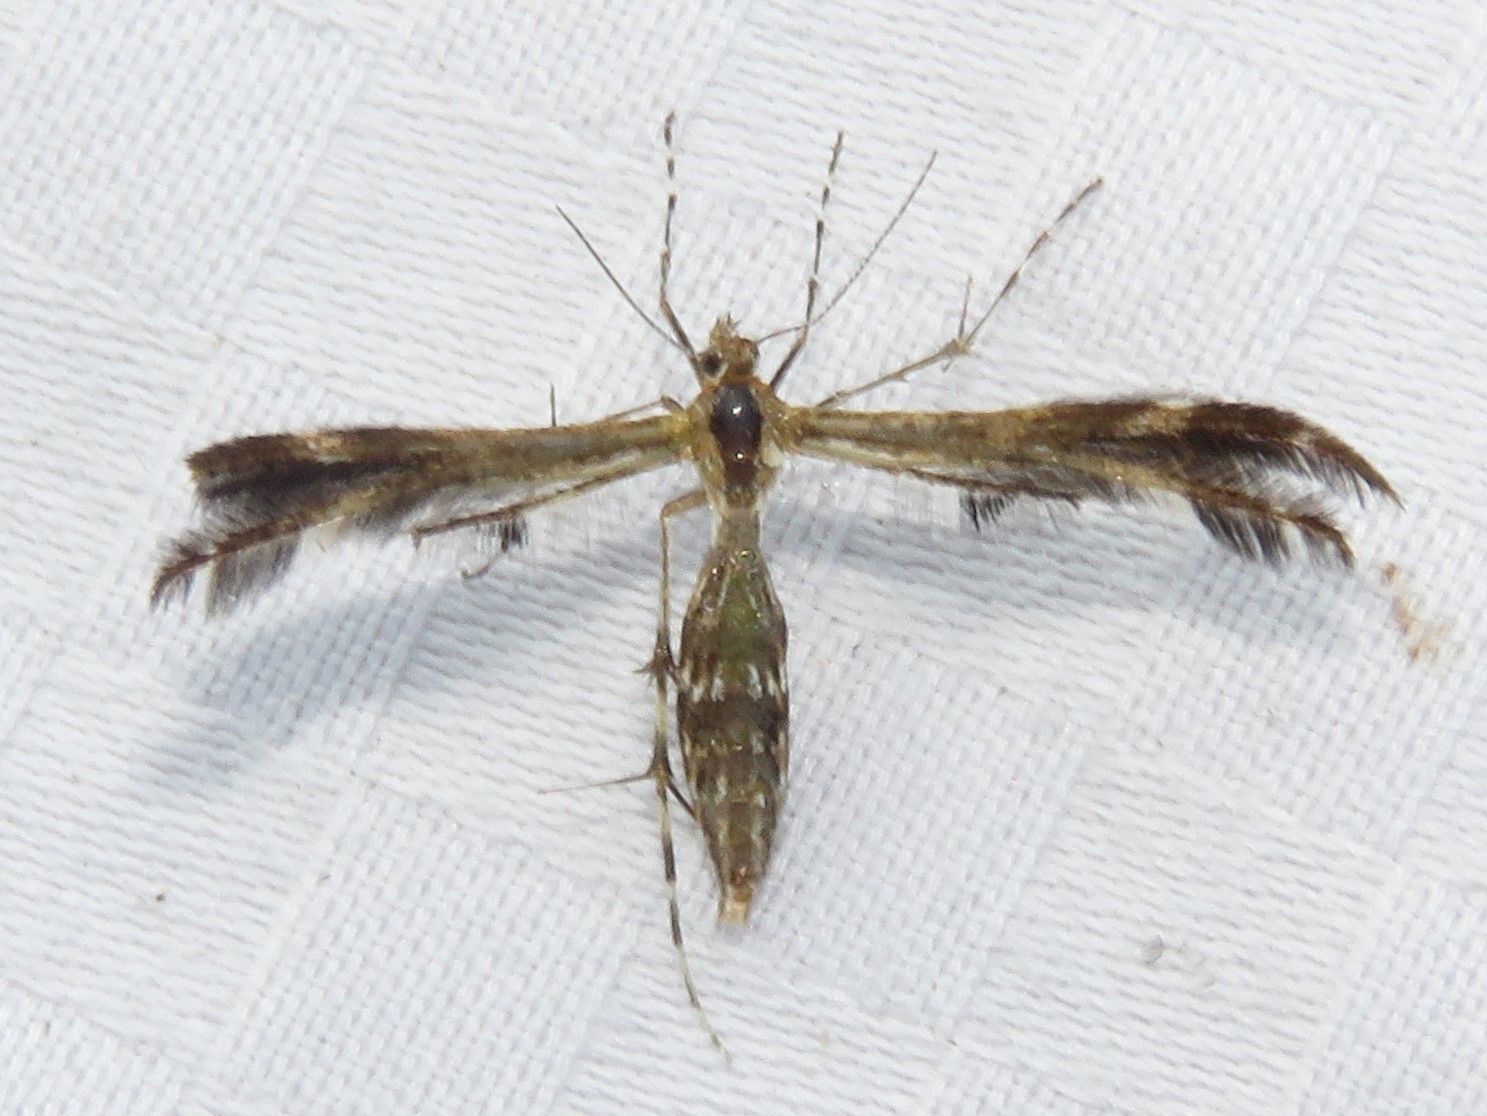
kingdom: Animalia
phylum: Arthropoda
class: Insecta
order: Lepidoptera
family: Pterophoridae
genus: Dejongia
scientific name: Dejongia lobidactylus
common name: Lobed plume moth
